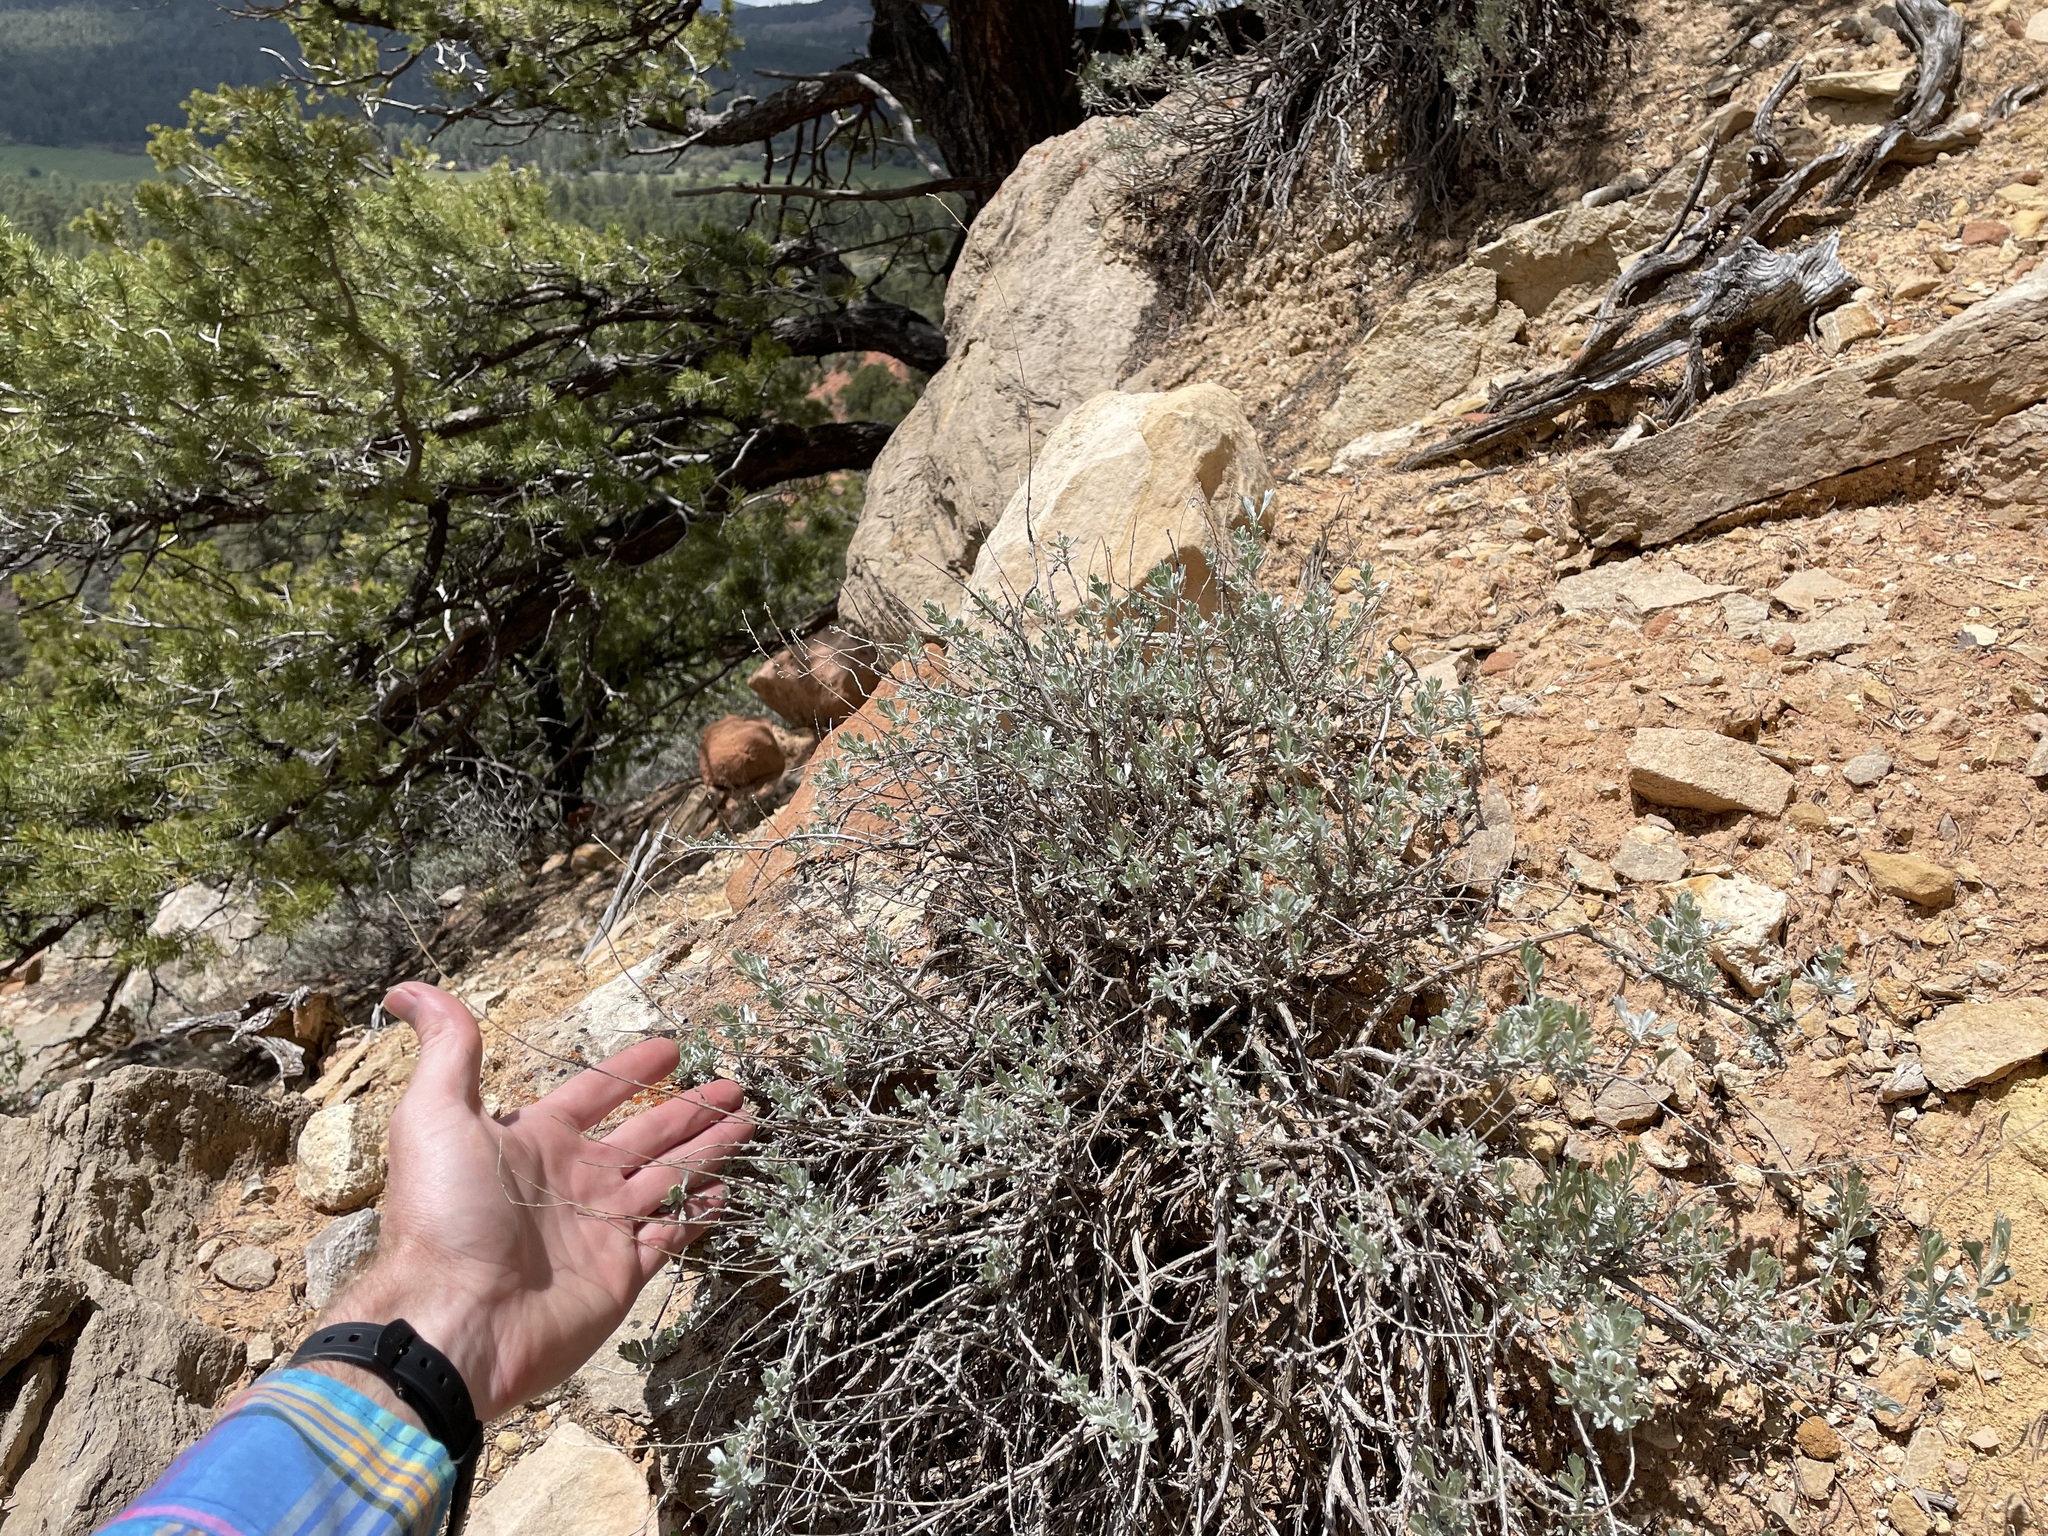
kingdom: Plantae
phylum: Tracheophyta
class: Magnoliopsida
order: Asterales
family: Asteraceae
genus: Artemisia
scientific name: Artemisia bigelovii
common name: Bigelow sagebrush
